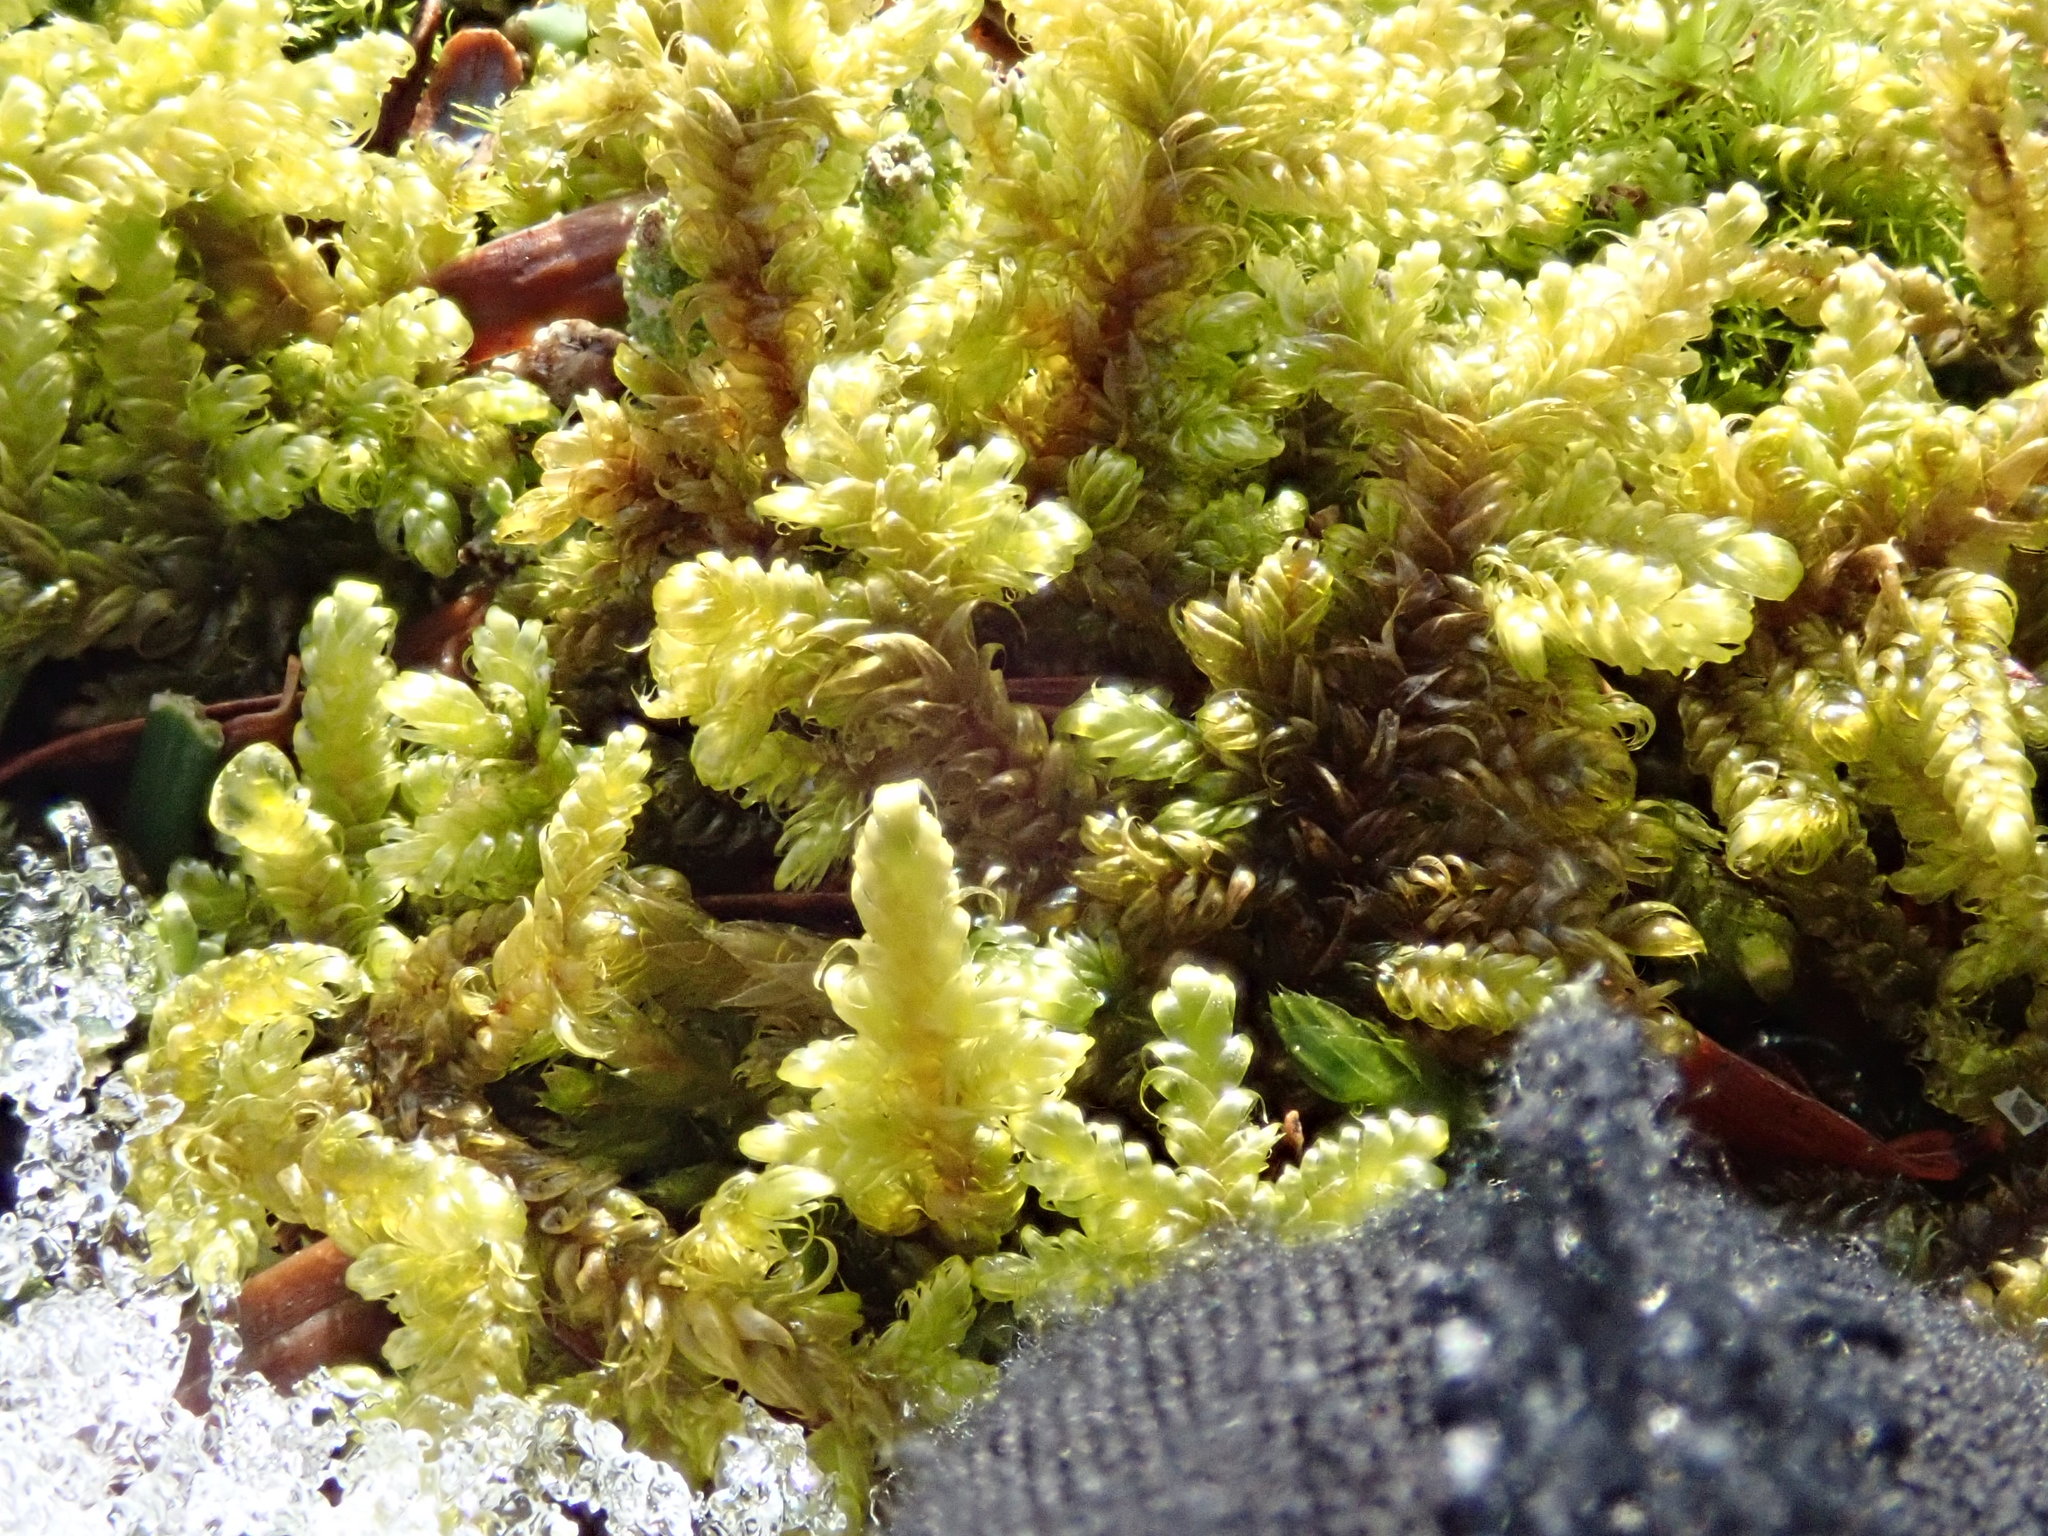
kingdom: Plantae
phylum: Bryophyta
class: Bryopsida
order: Hypnales
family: Callicladiaceae
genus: Callicladium
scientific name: Callicladium imponens
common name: Brocade moss
